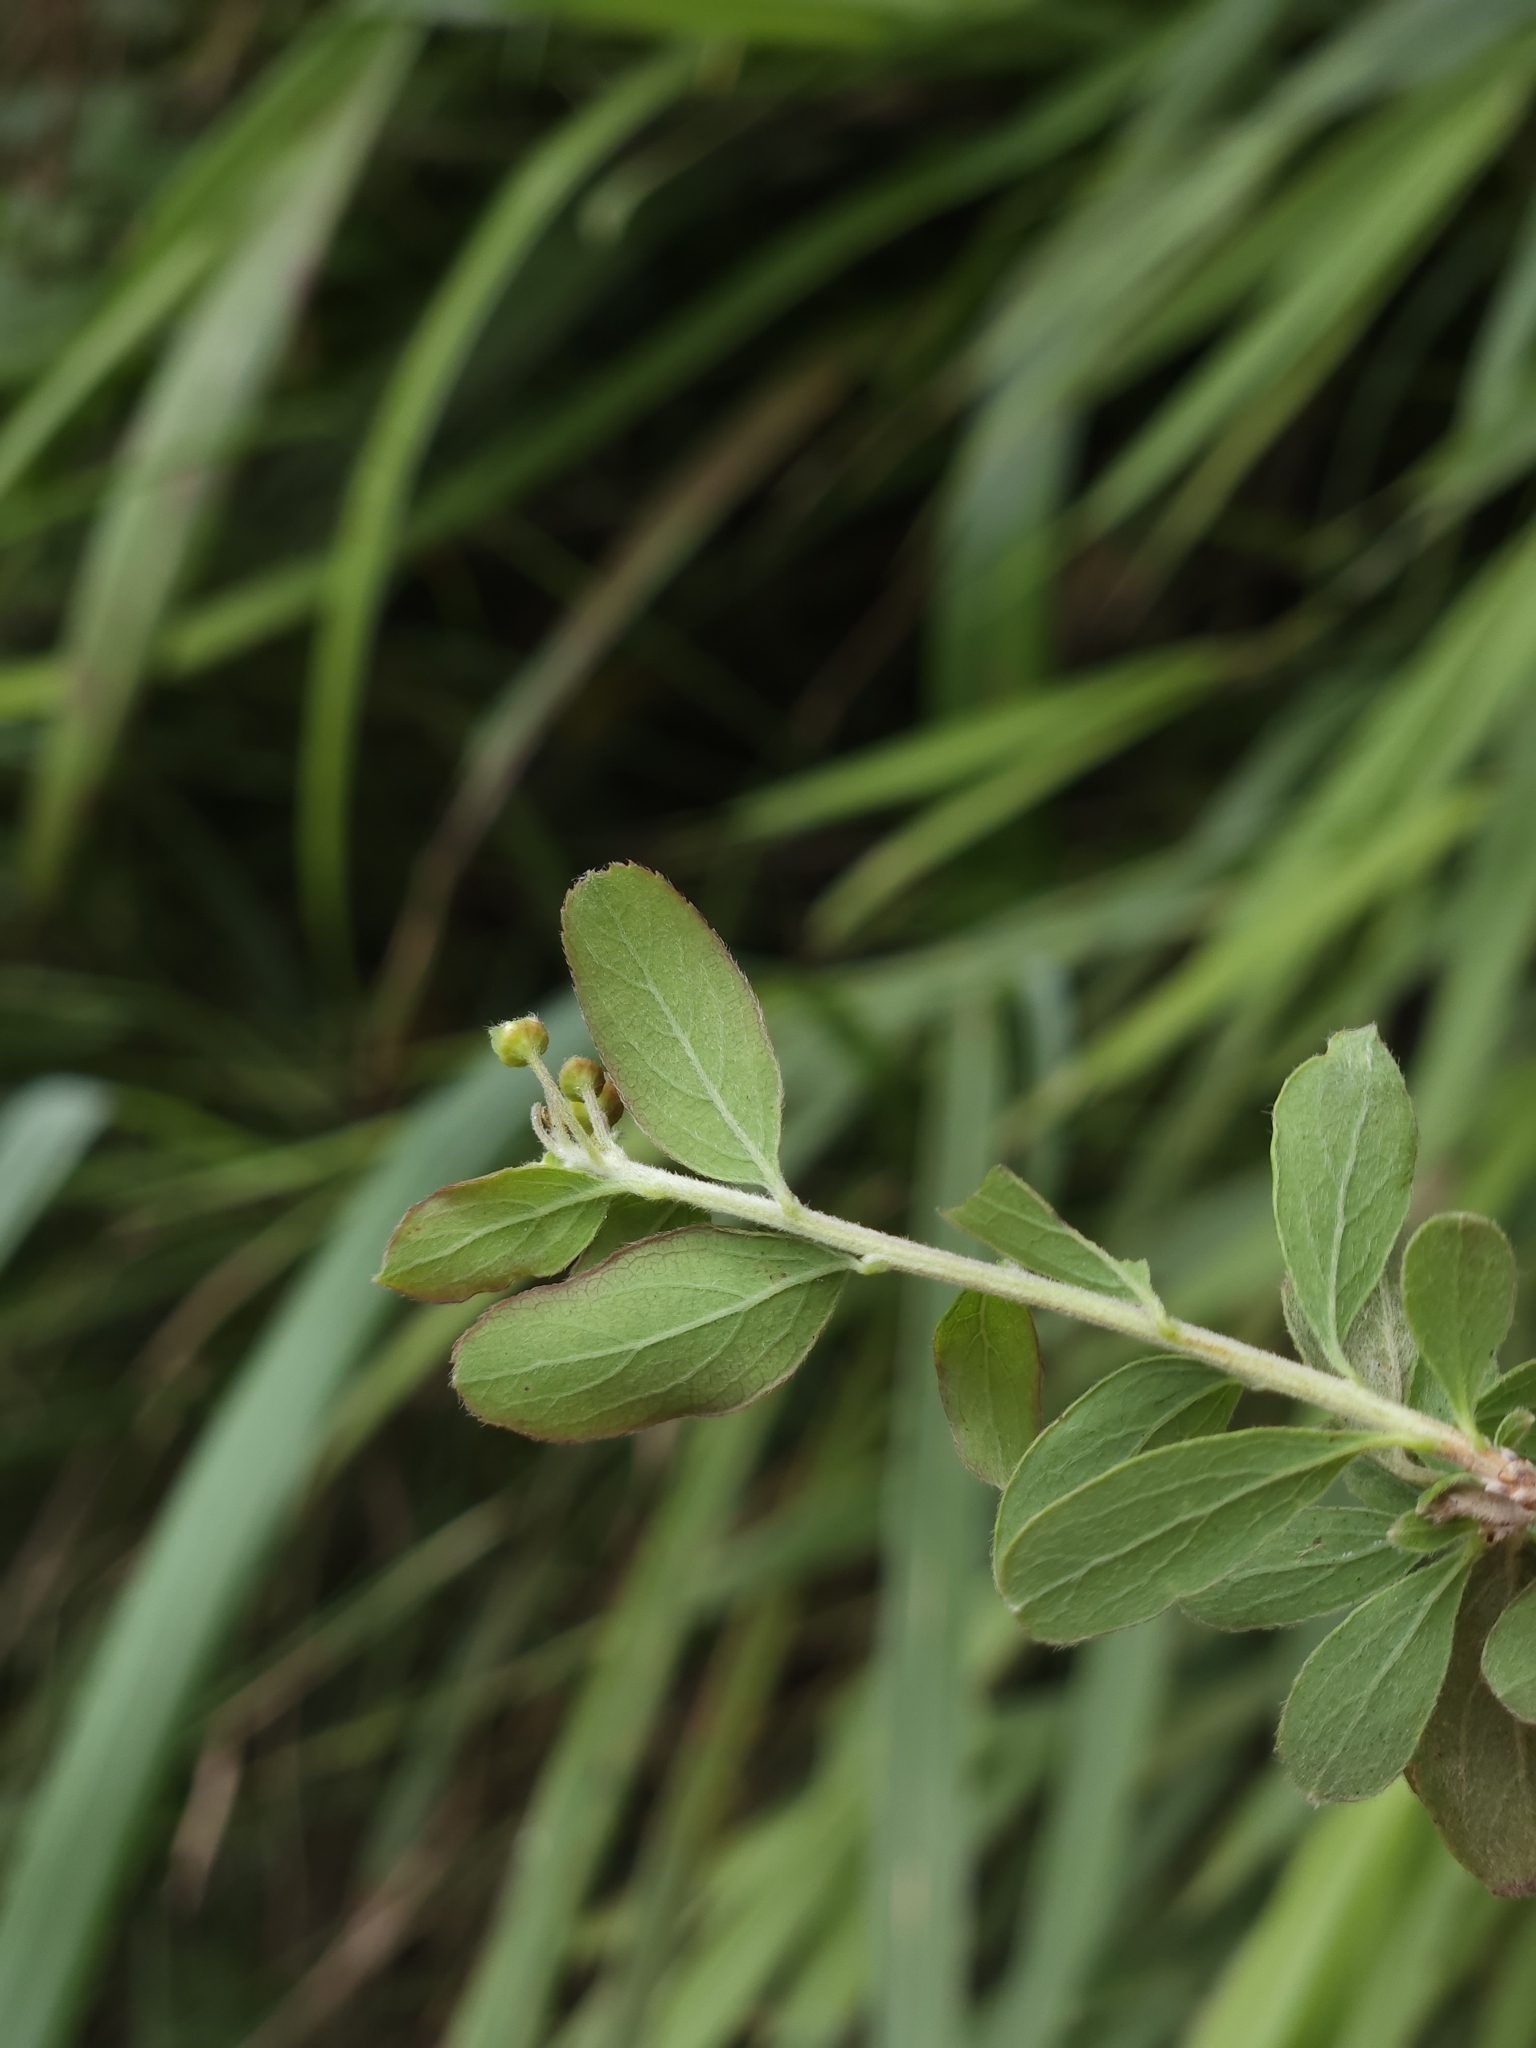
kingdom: Plantae
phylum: Tracheophyta
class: Magnoliopsida
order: Rosales
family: Rosaceae
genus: Spiraea
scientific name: Spiraea prunifolia
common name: Bridal-wreath spiraea
